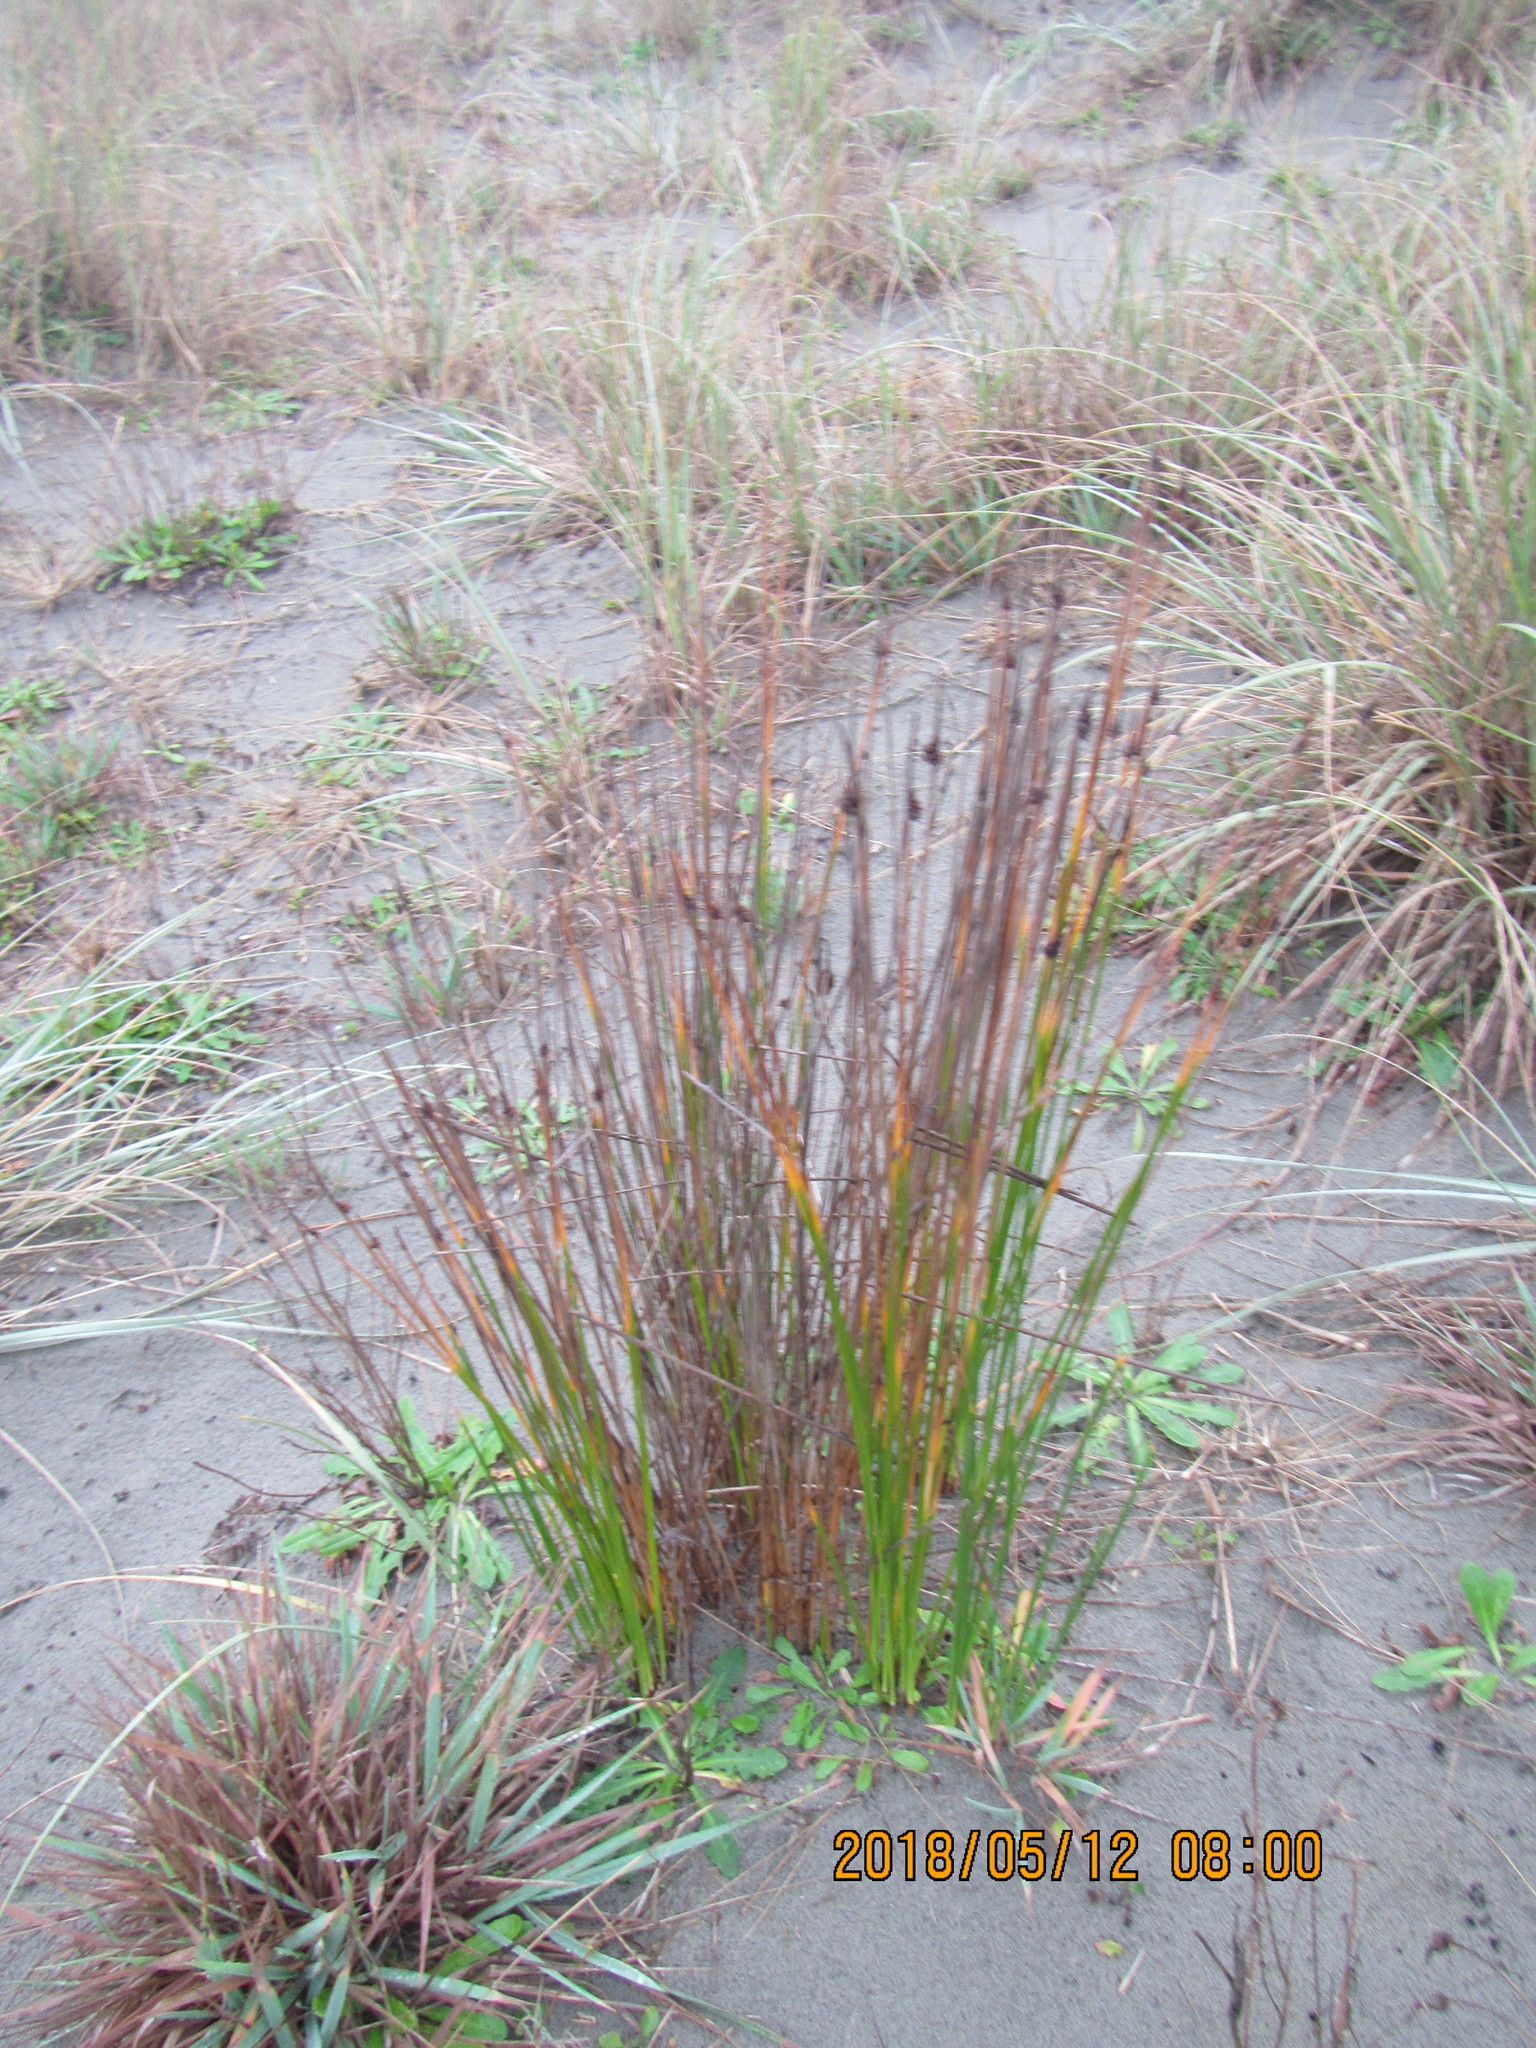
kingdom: Plantae
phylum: Tracheophyta
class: Liliopsida
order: Poales
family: Cyperaceae
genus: Ficinia
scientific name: Ficinia nodosa
